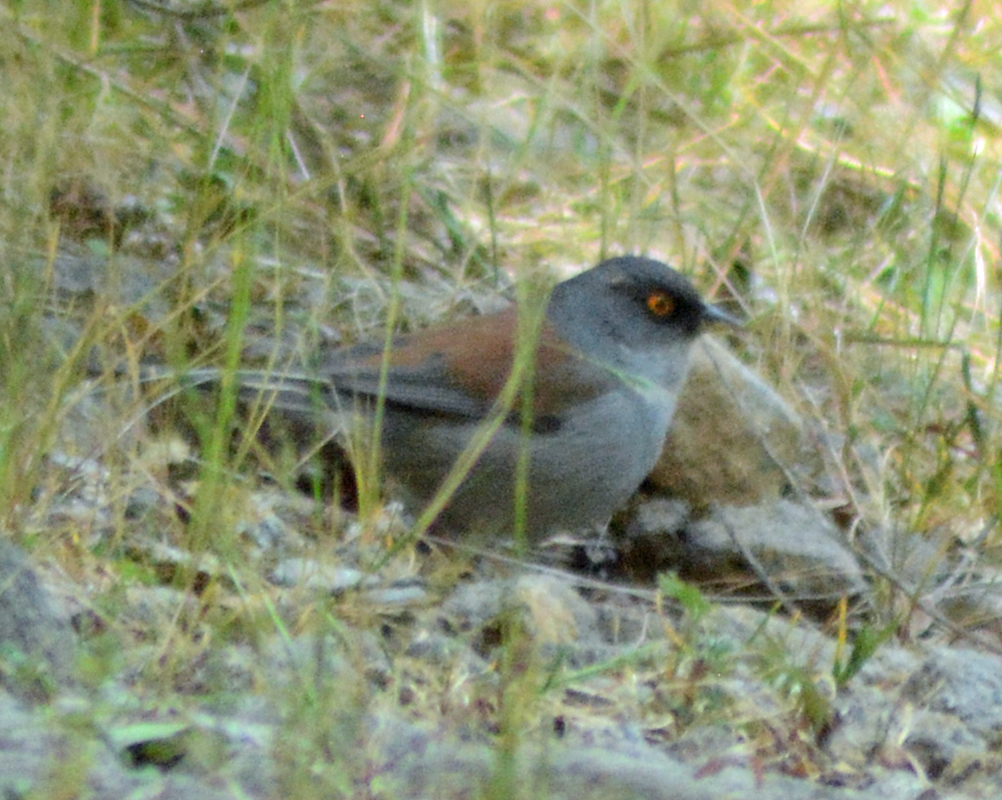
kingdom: Animalia
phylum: Chordata
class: Aves
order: Passeriformes
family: Passerellidae
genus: Junco
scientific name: Junco phaeonotus
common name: Yellow-eyed junco
